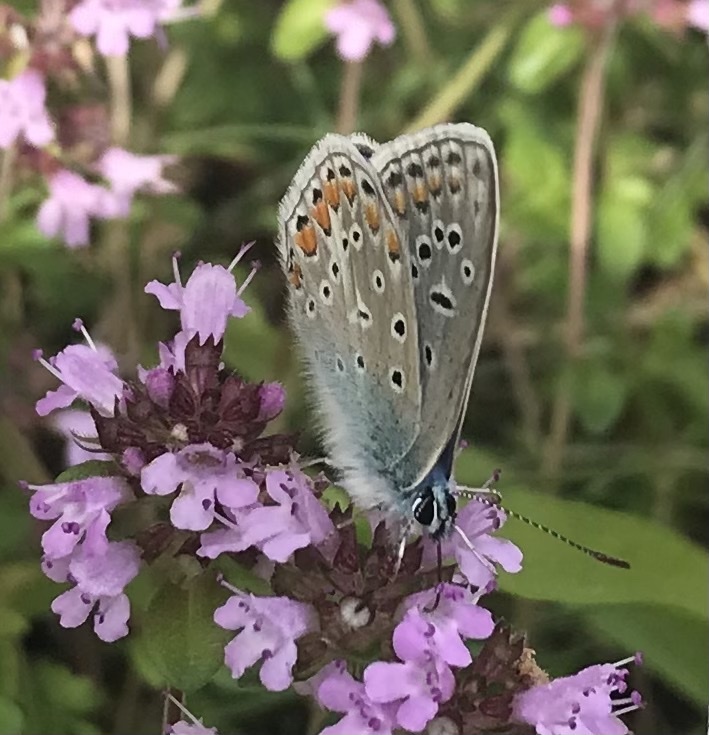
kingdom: Animalia
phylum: Arthropoda
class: Insecta
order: Lepidoptera
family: Lycaenidae
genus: Polyommatus
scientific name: Polyommatus icarus
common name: Common blue
